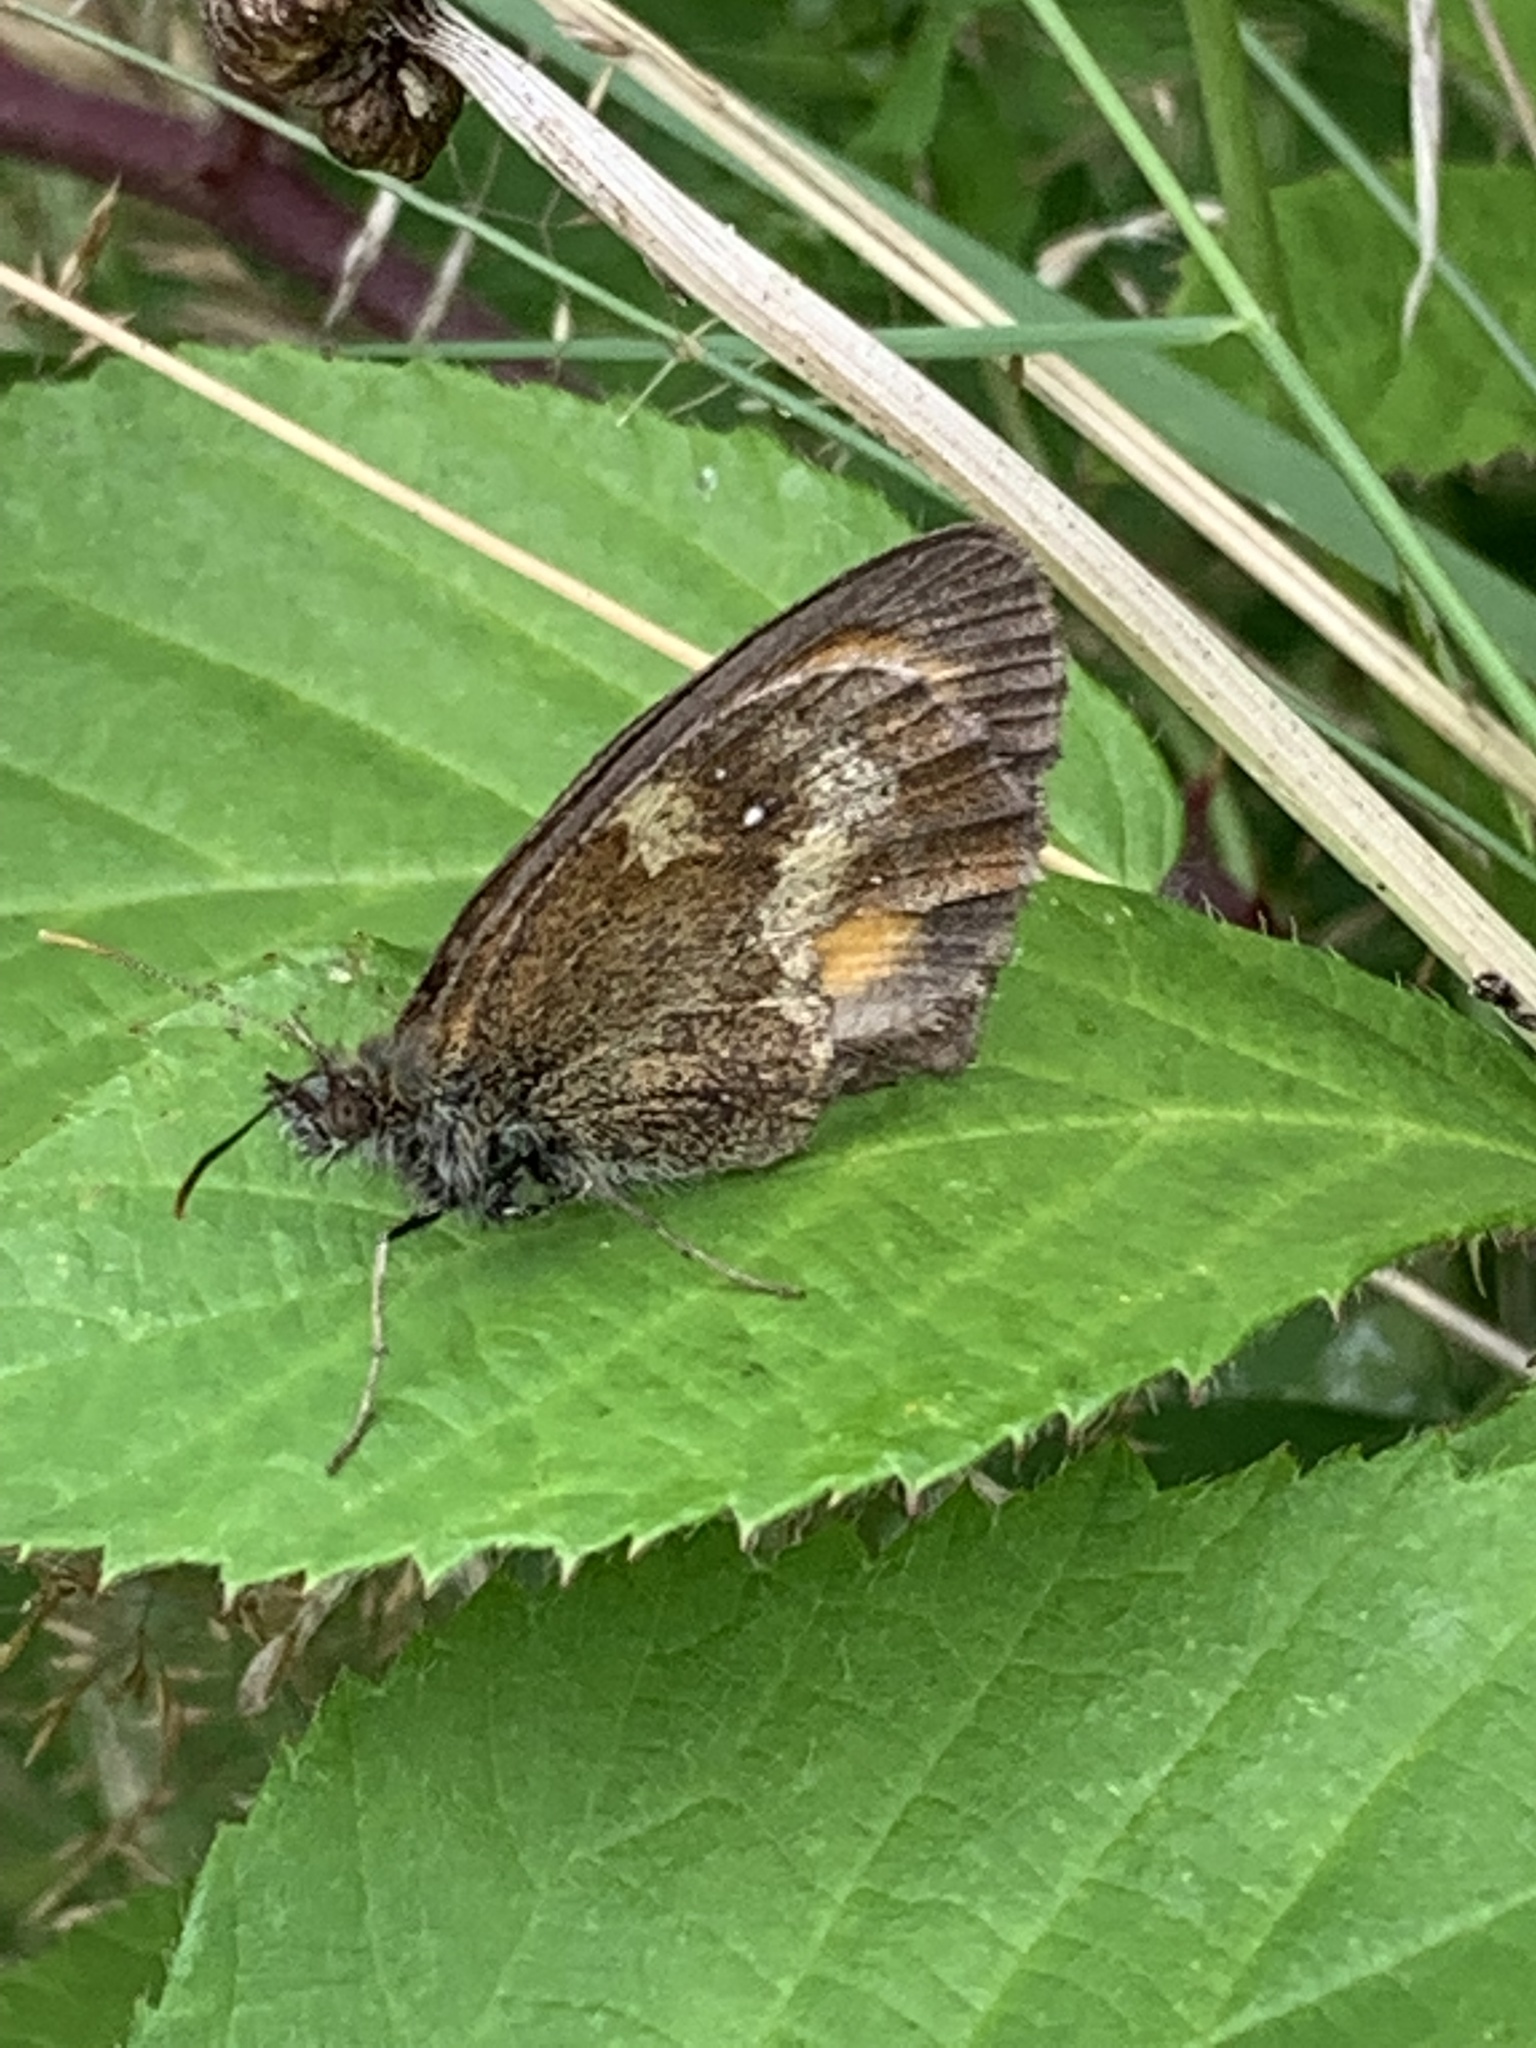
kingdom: Animalia
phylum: Arthropoda
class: Insecta
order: Lepidoptera
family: Nymphalidae
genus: Pyronia
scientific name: Pyronia tithonus
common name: Gatekeeper
